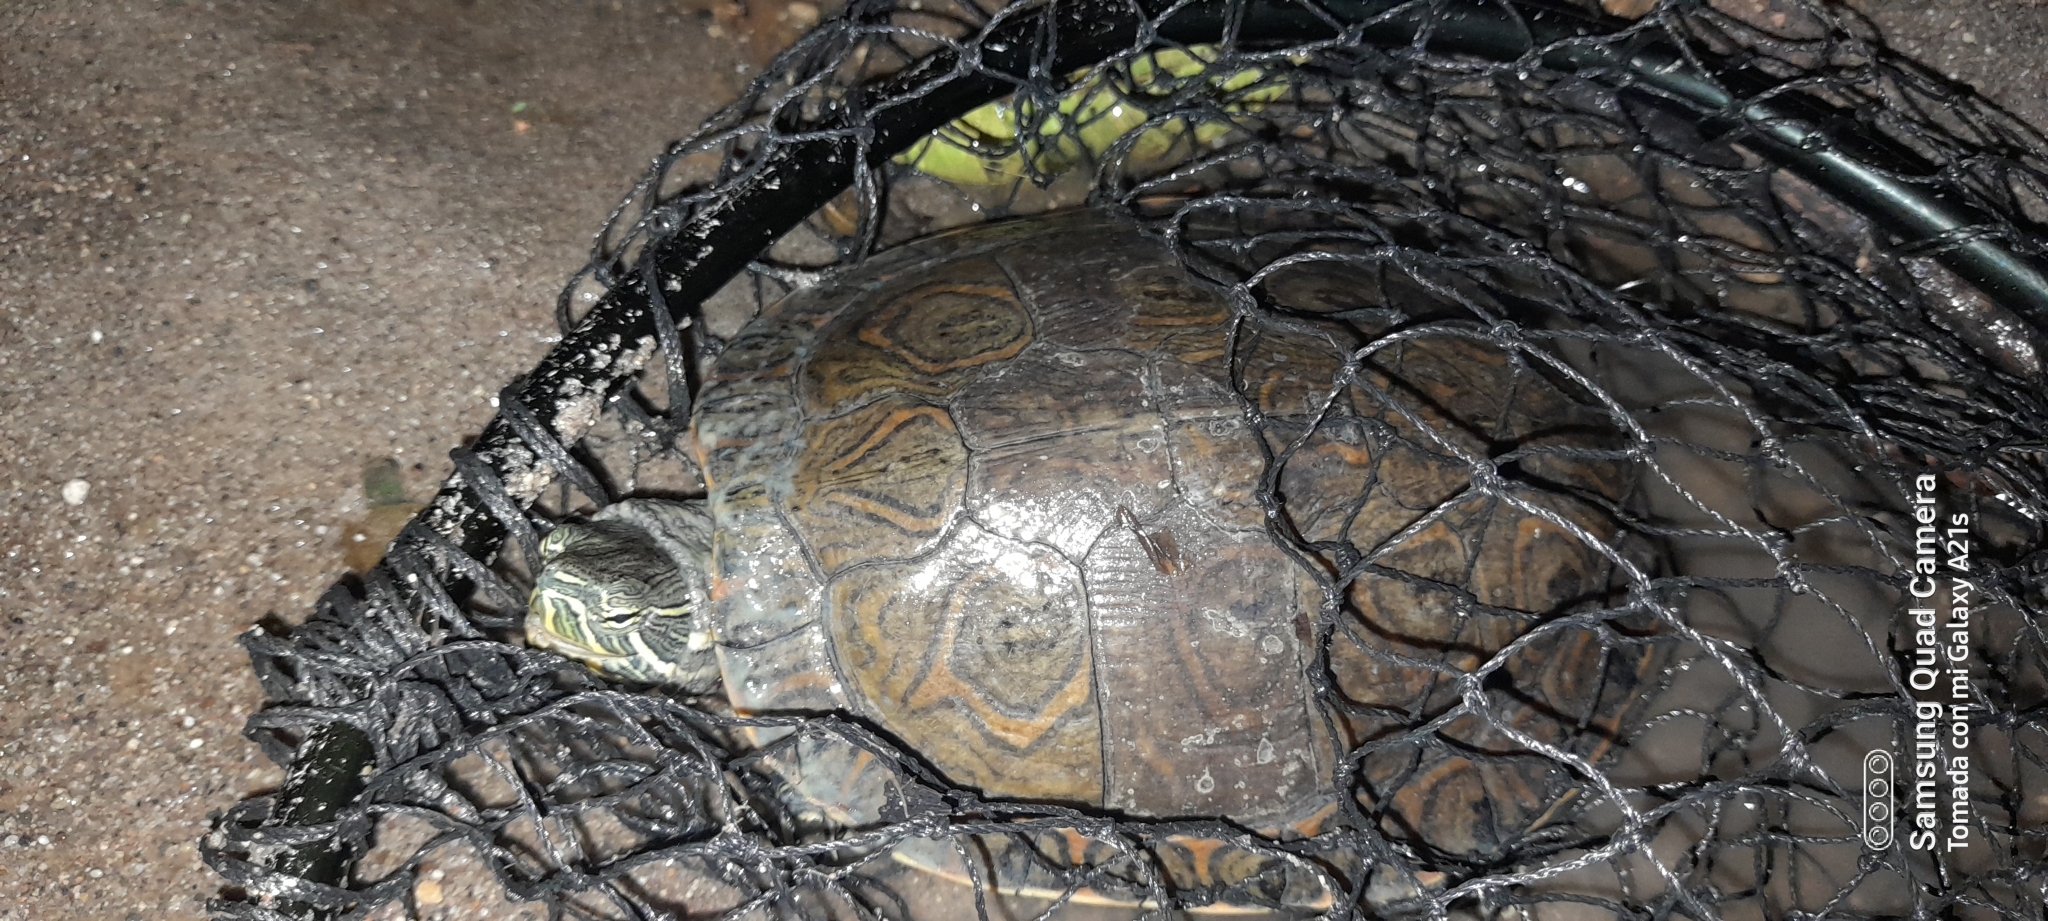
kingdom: Animalia
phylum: Chordata
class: Testudines
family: Emydidae
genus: Trachemys
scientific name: Trachemys venusta
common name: Mesoamerican slider
